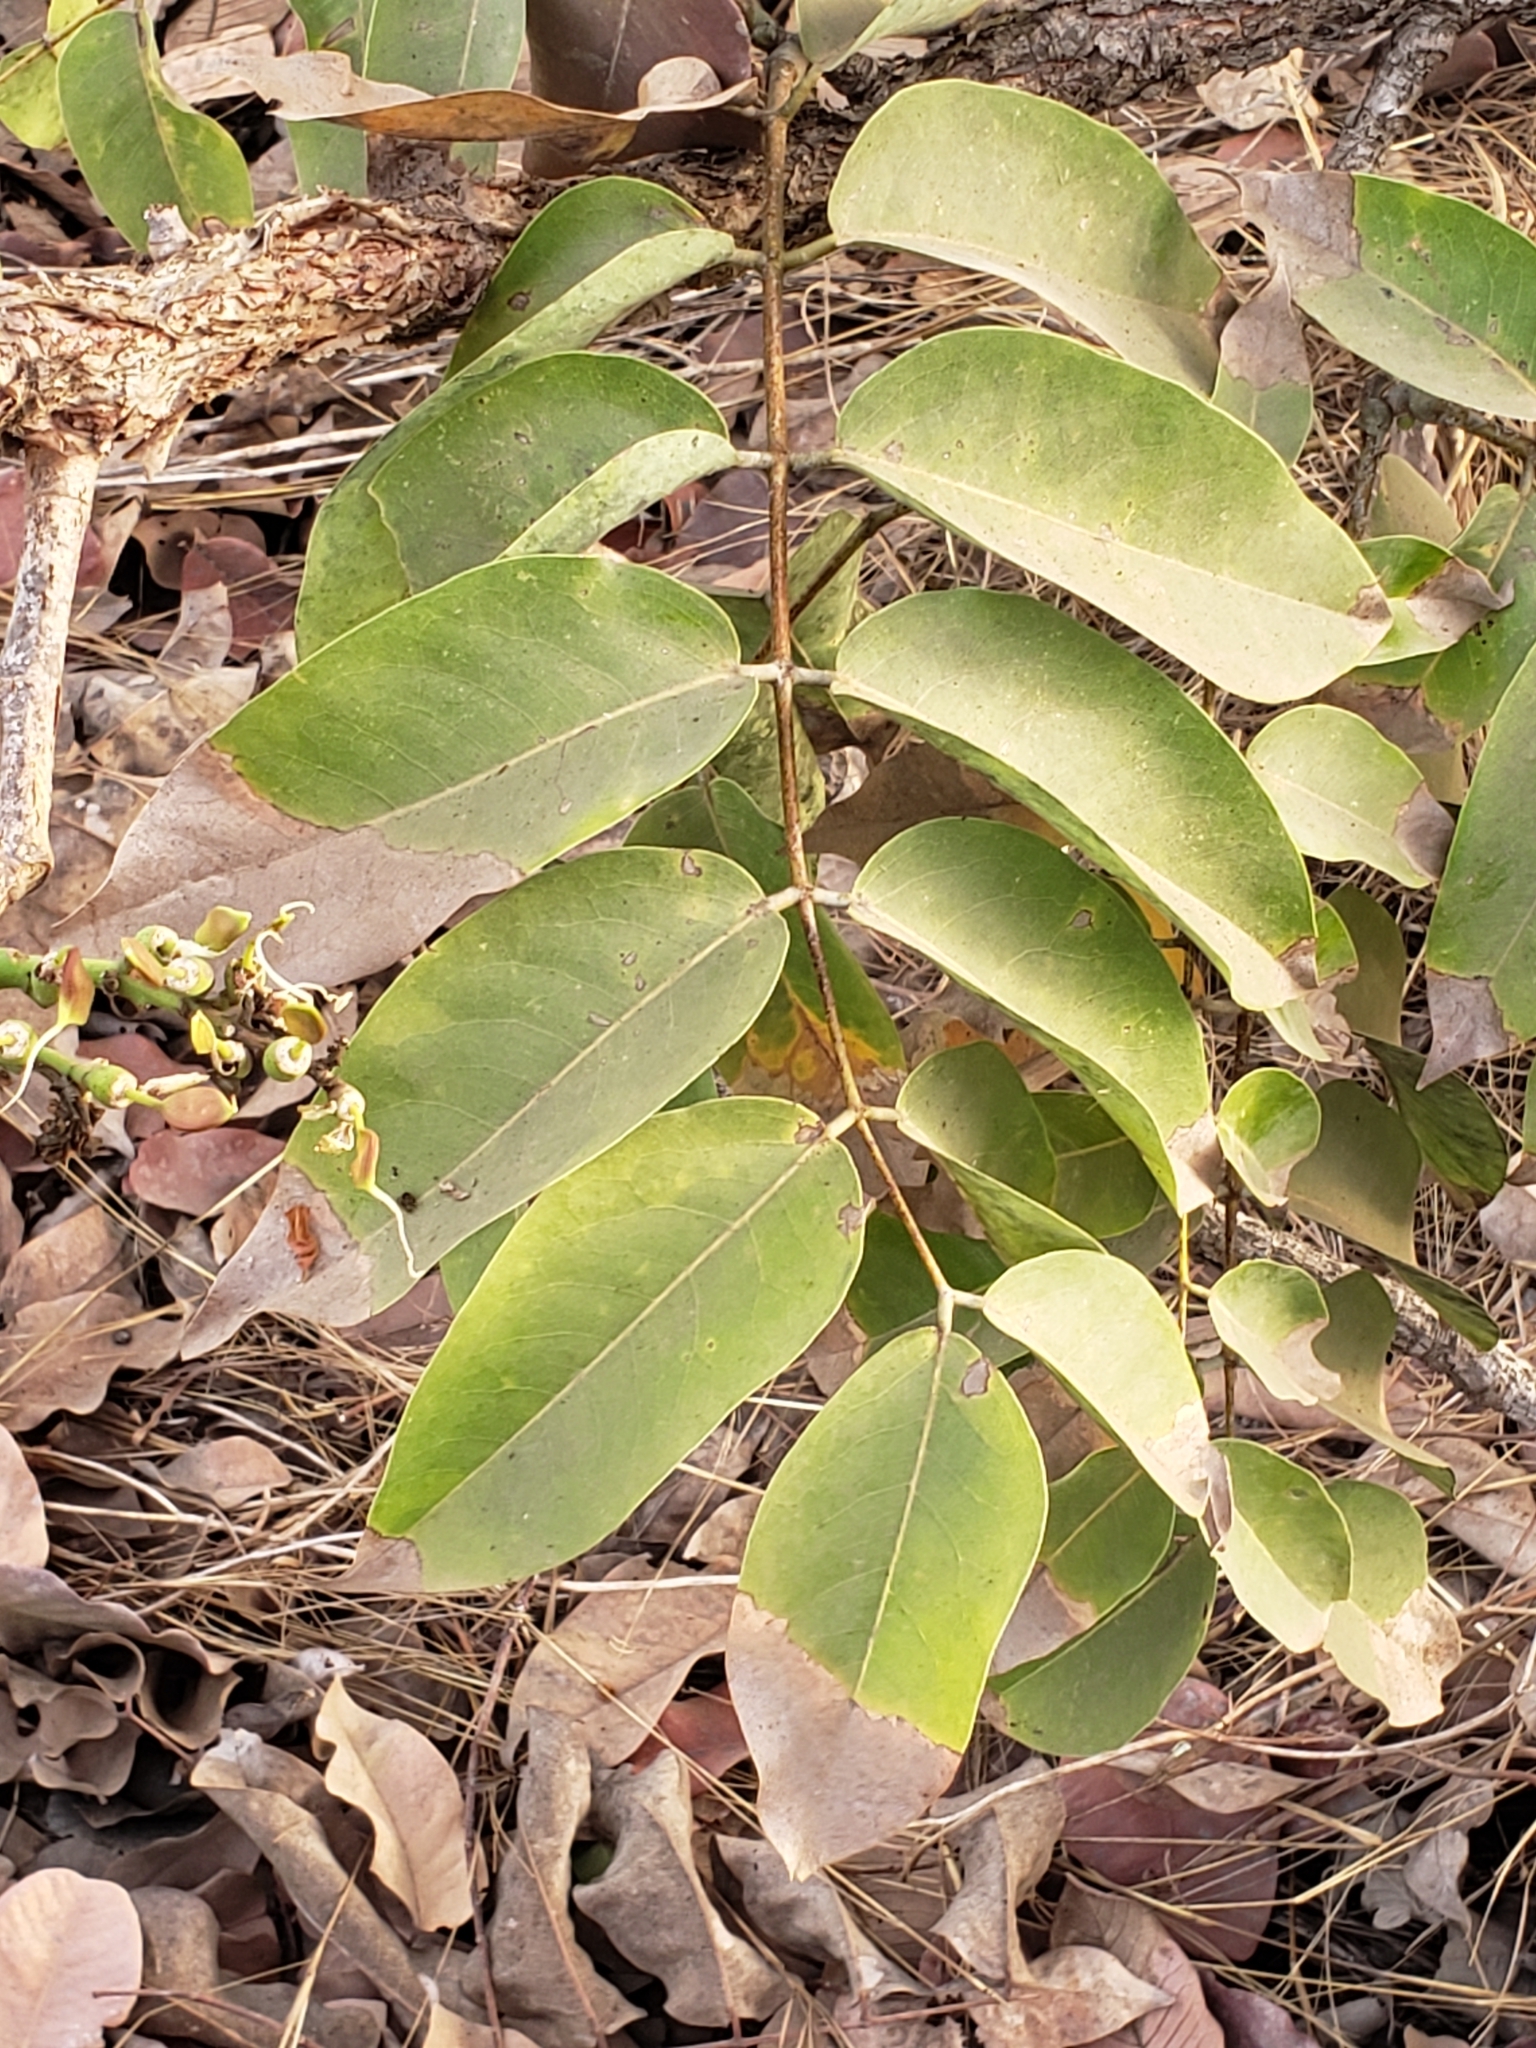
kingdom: Plantae
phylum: Tracheophyta
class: Magnoliopsida
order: Fabales
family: Fabaceae
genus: Daniellia
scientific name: Daniellia oliveri
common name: African copaiba balsamtree
